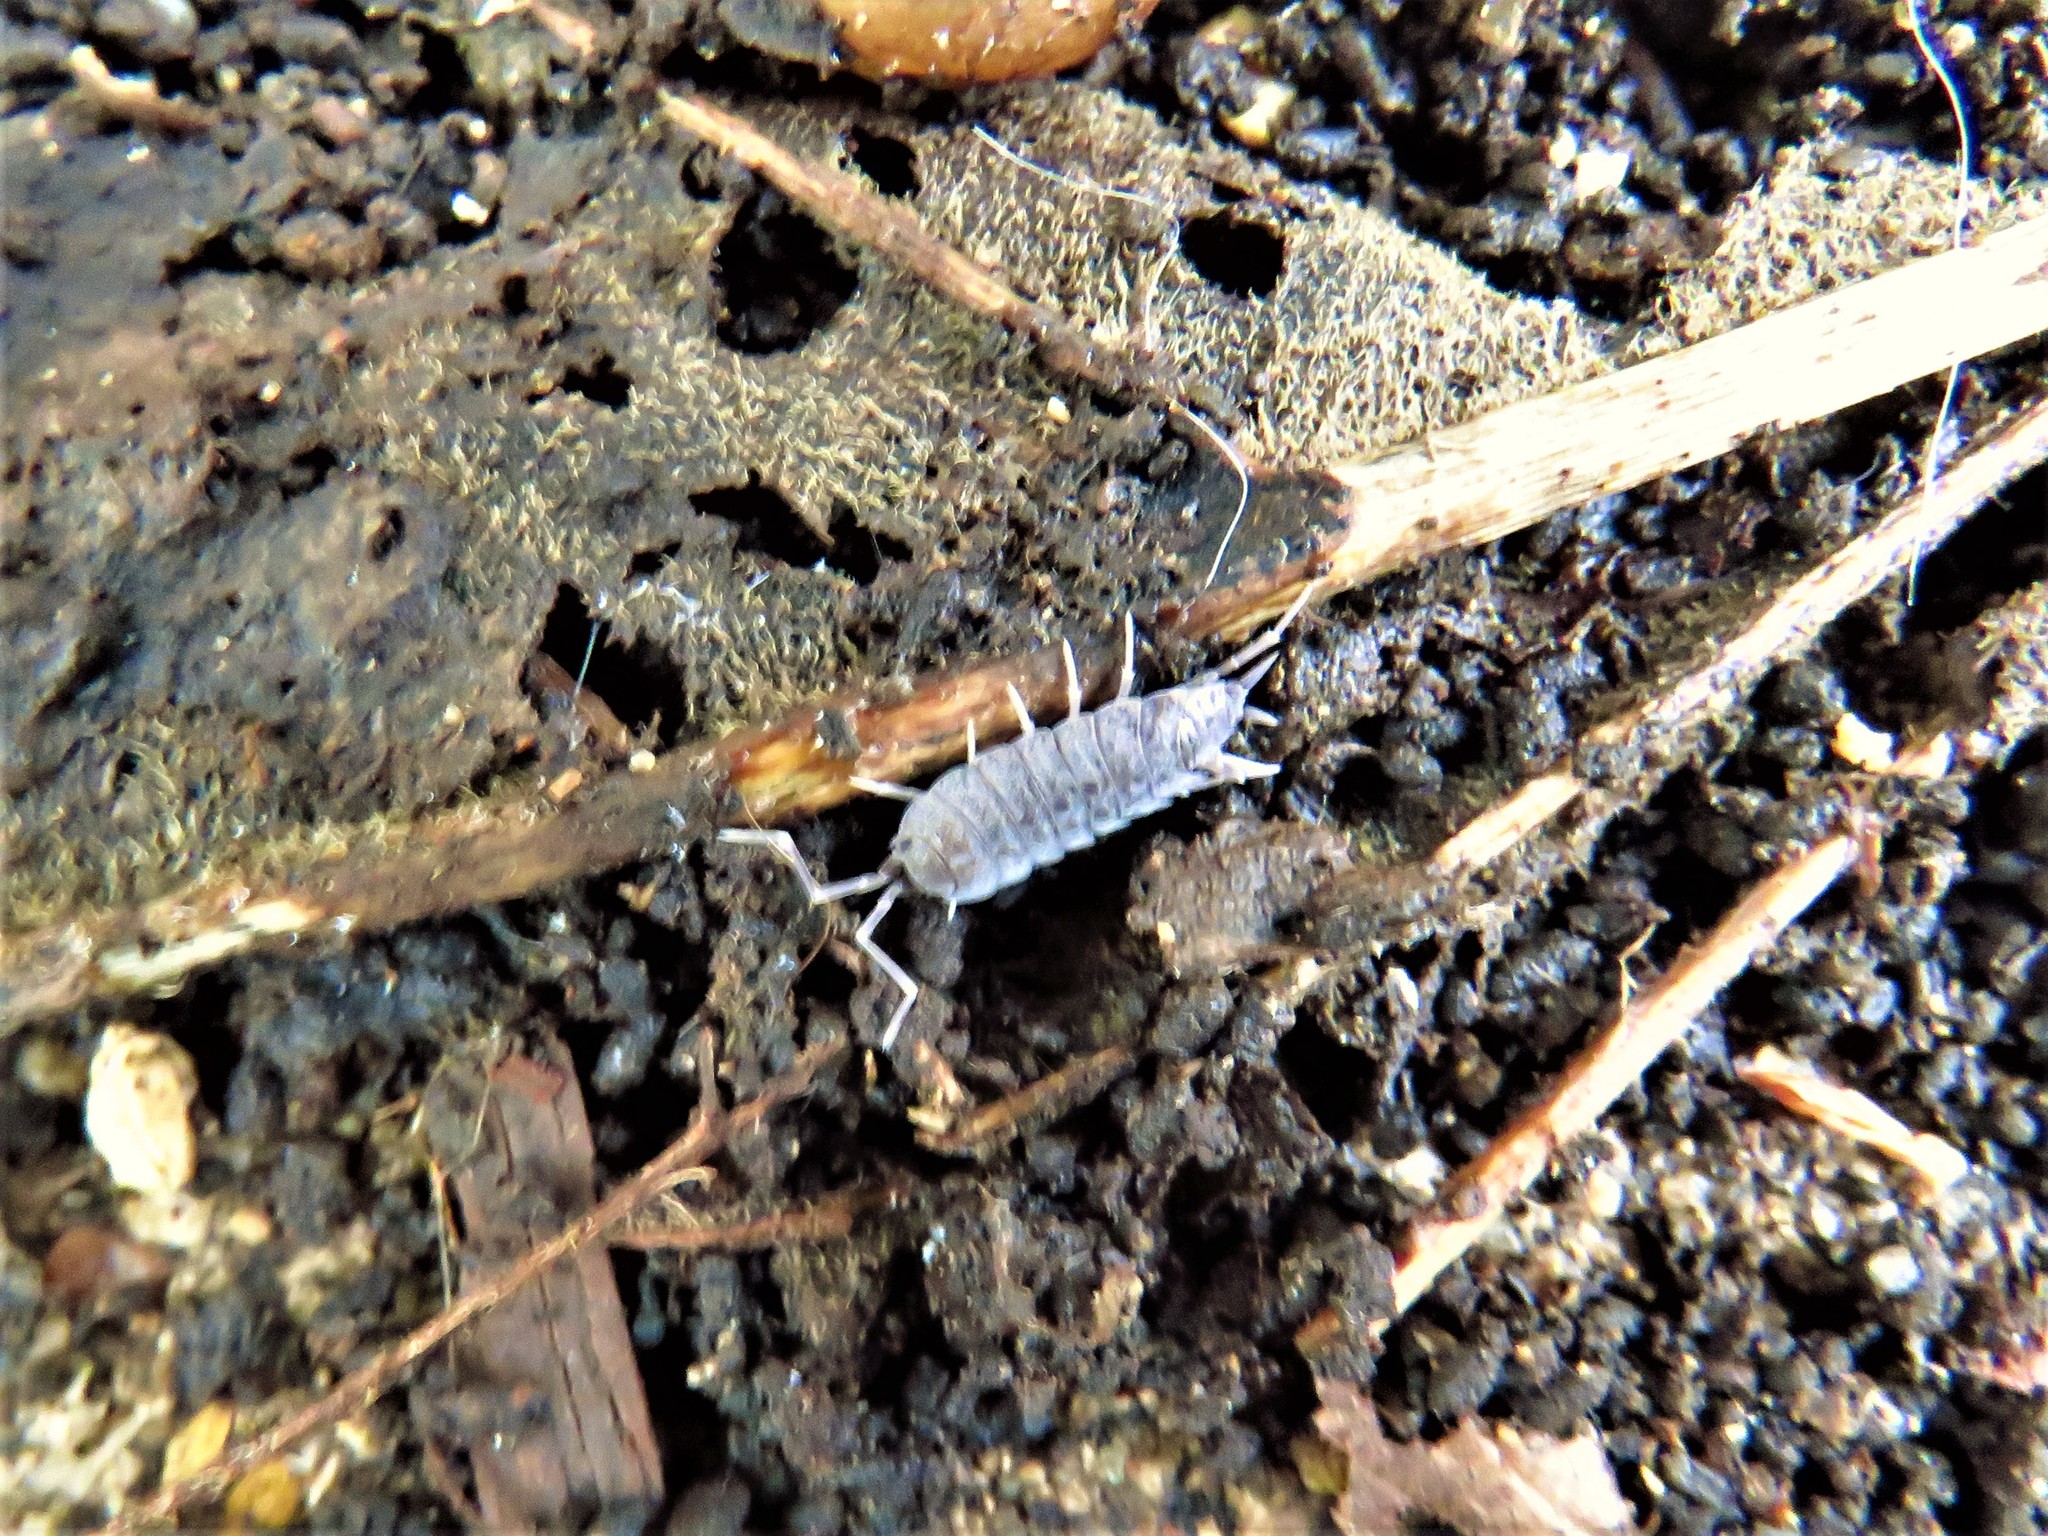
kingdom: Animalia
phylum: Arthropoda
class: Malacostraca
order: Isopoda
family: Porcellionidae
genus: Porcellionides
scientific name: Porcellionides pruinosus
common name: Plum woodlouse
